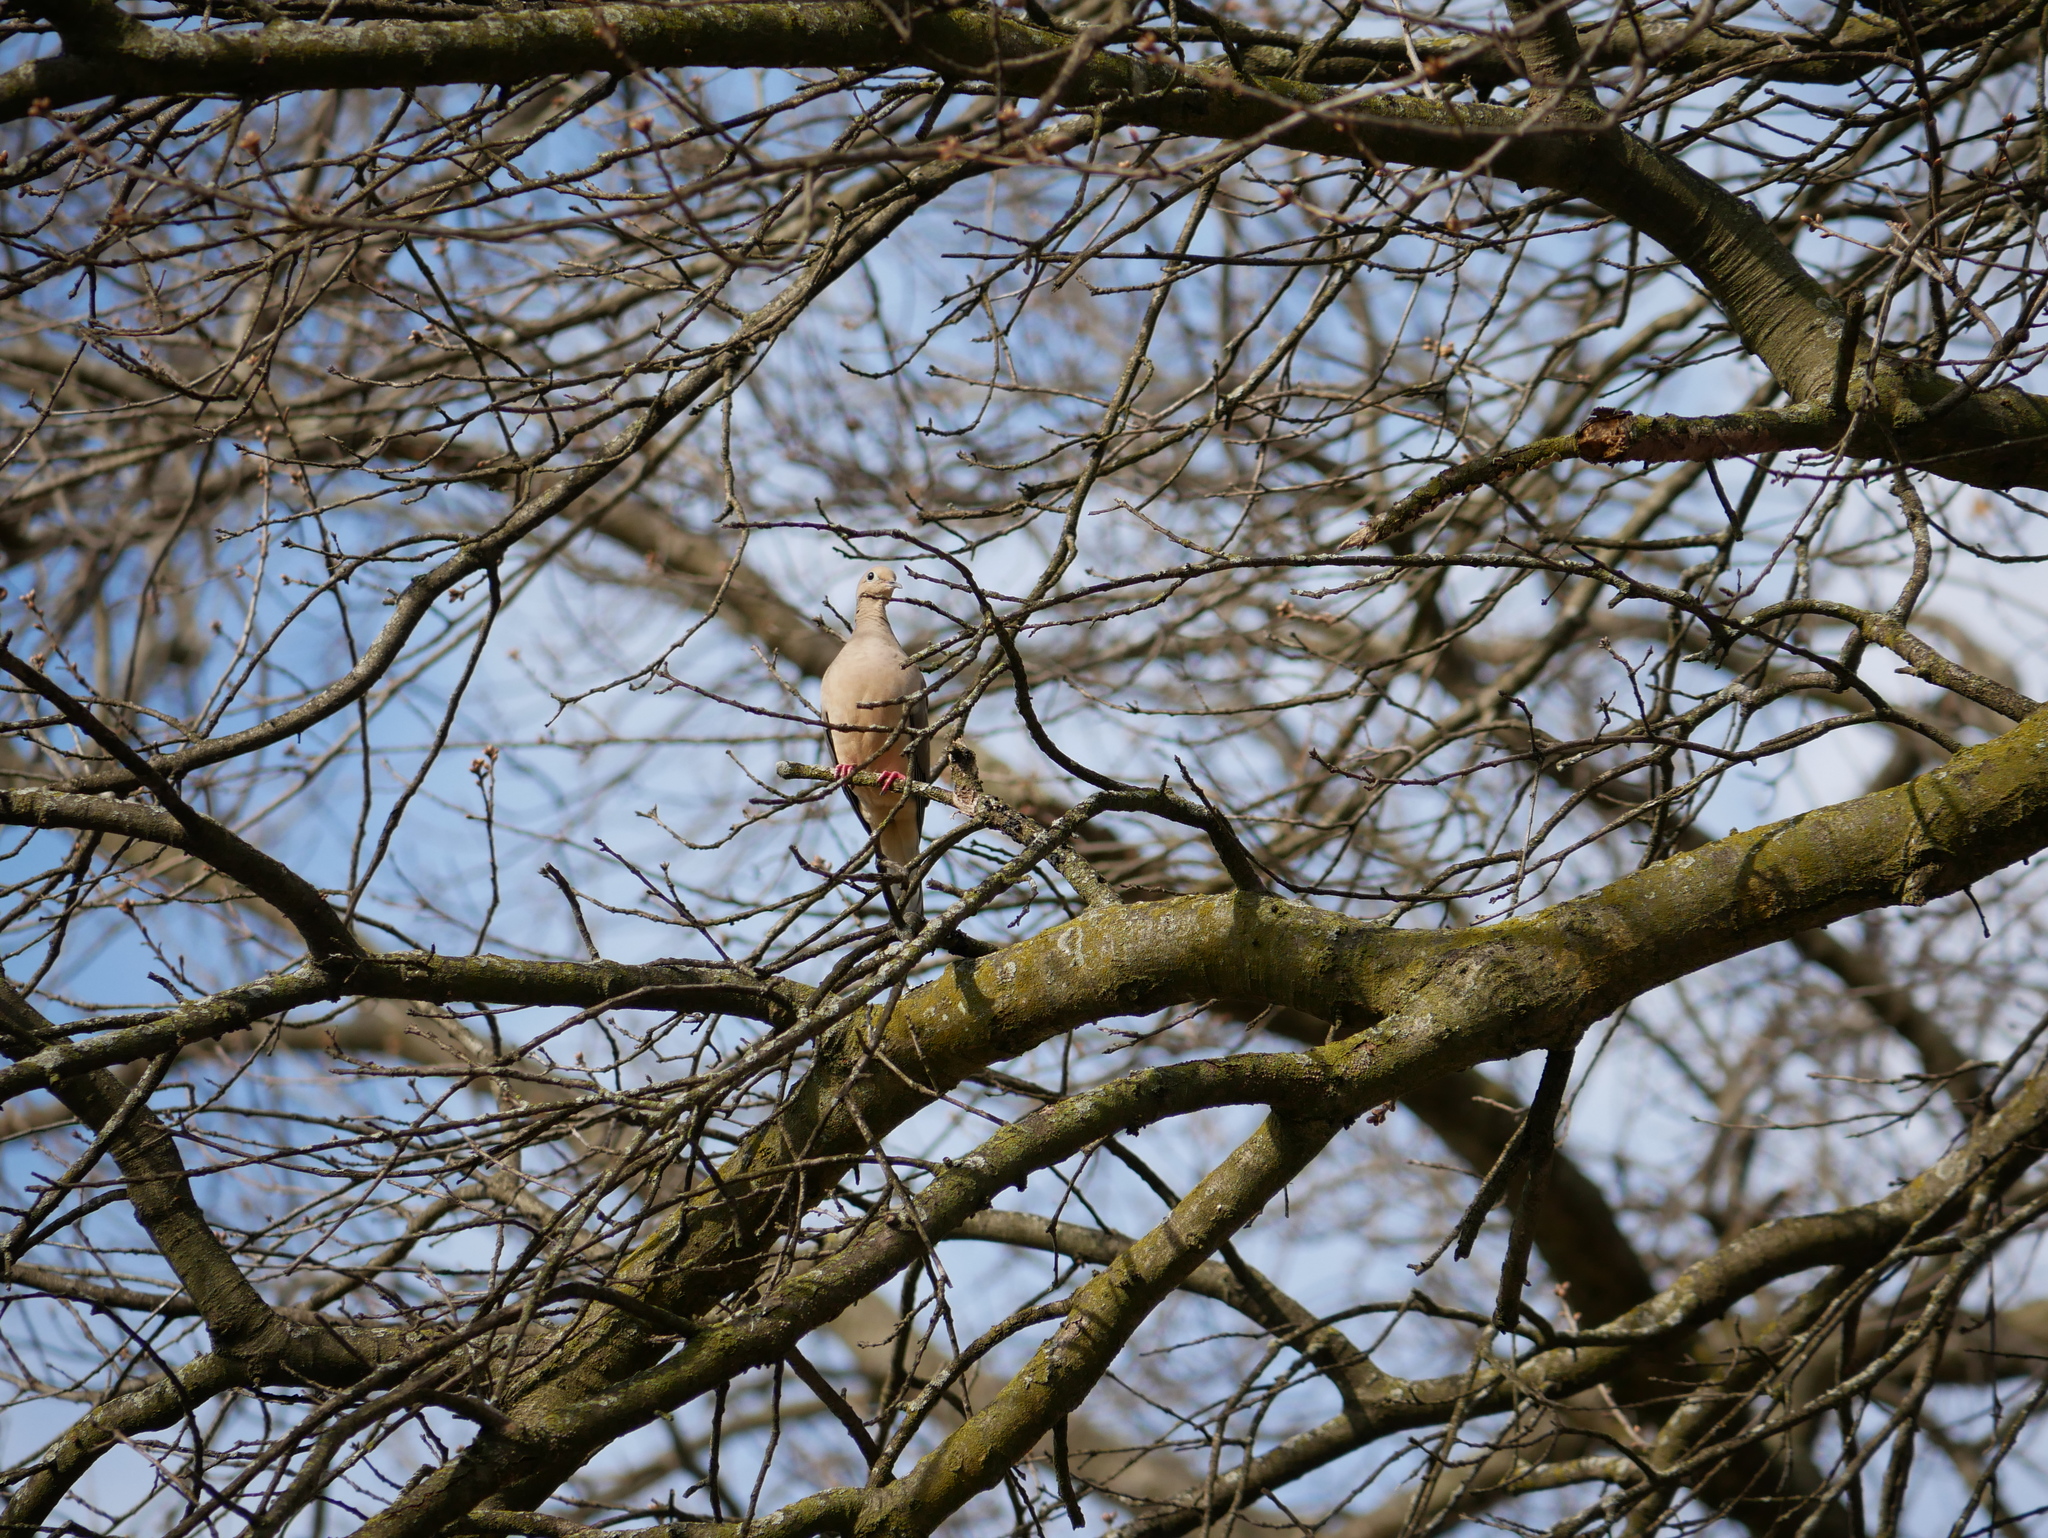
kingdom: Animalia
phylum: Chordata
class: Aves
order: Columbiformes
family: Columbidae
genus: Zenaida
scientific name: Zenaida macroura
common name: Mourning dove
